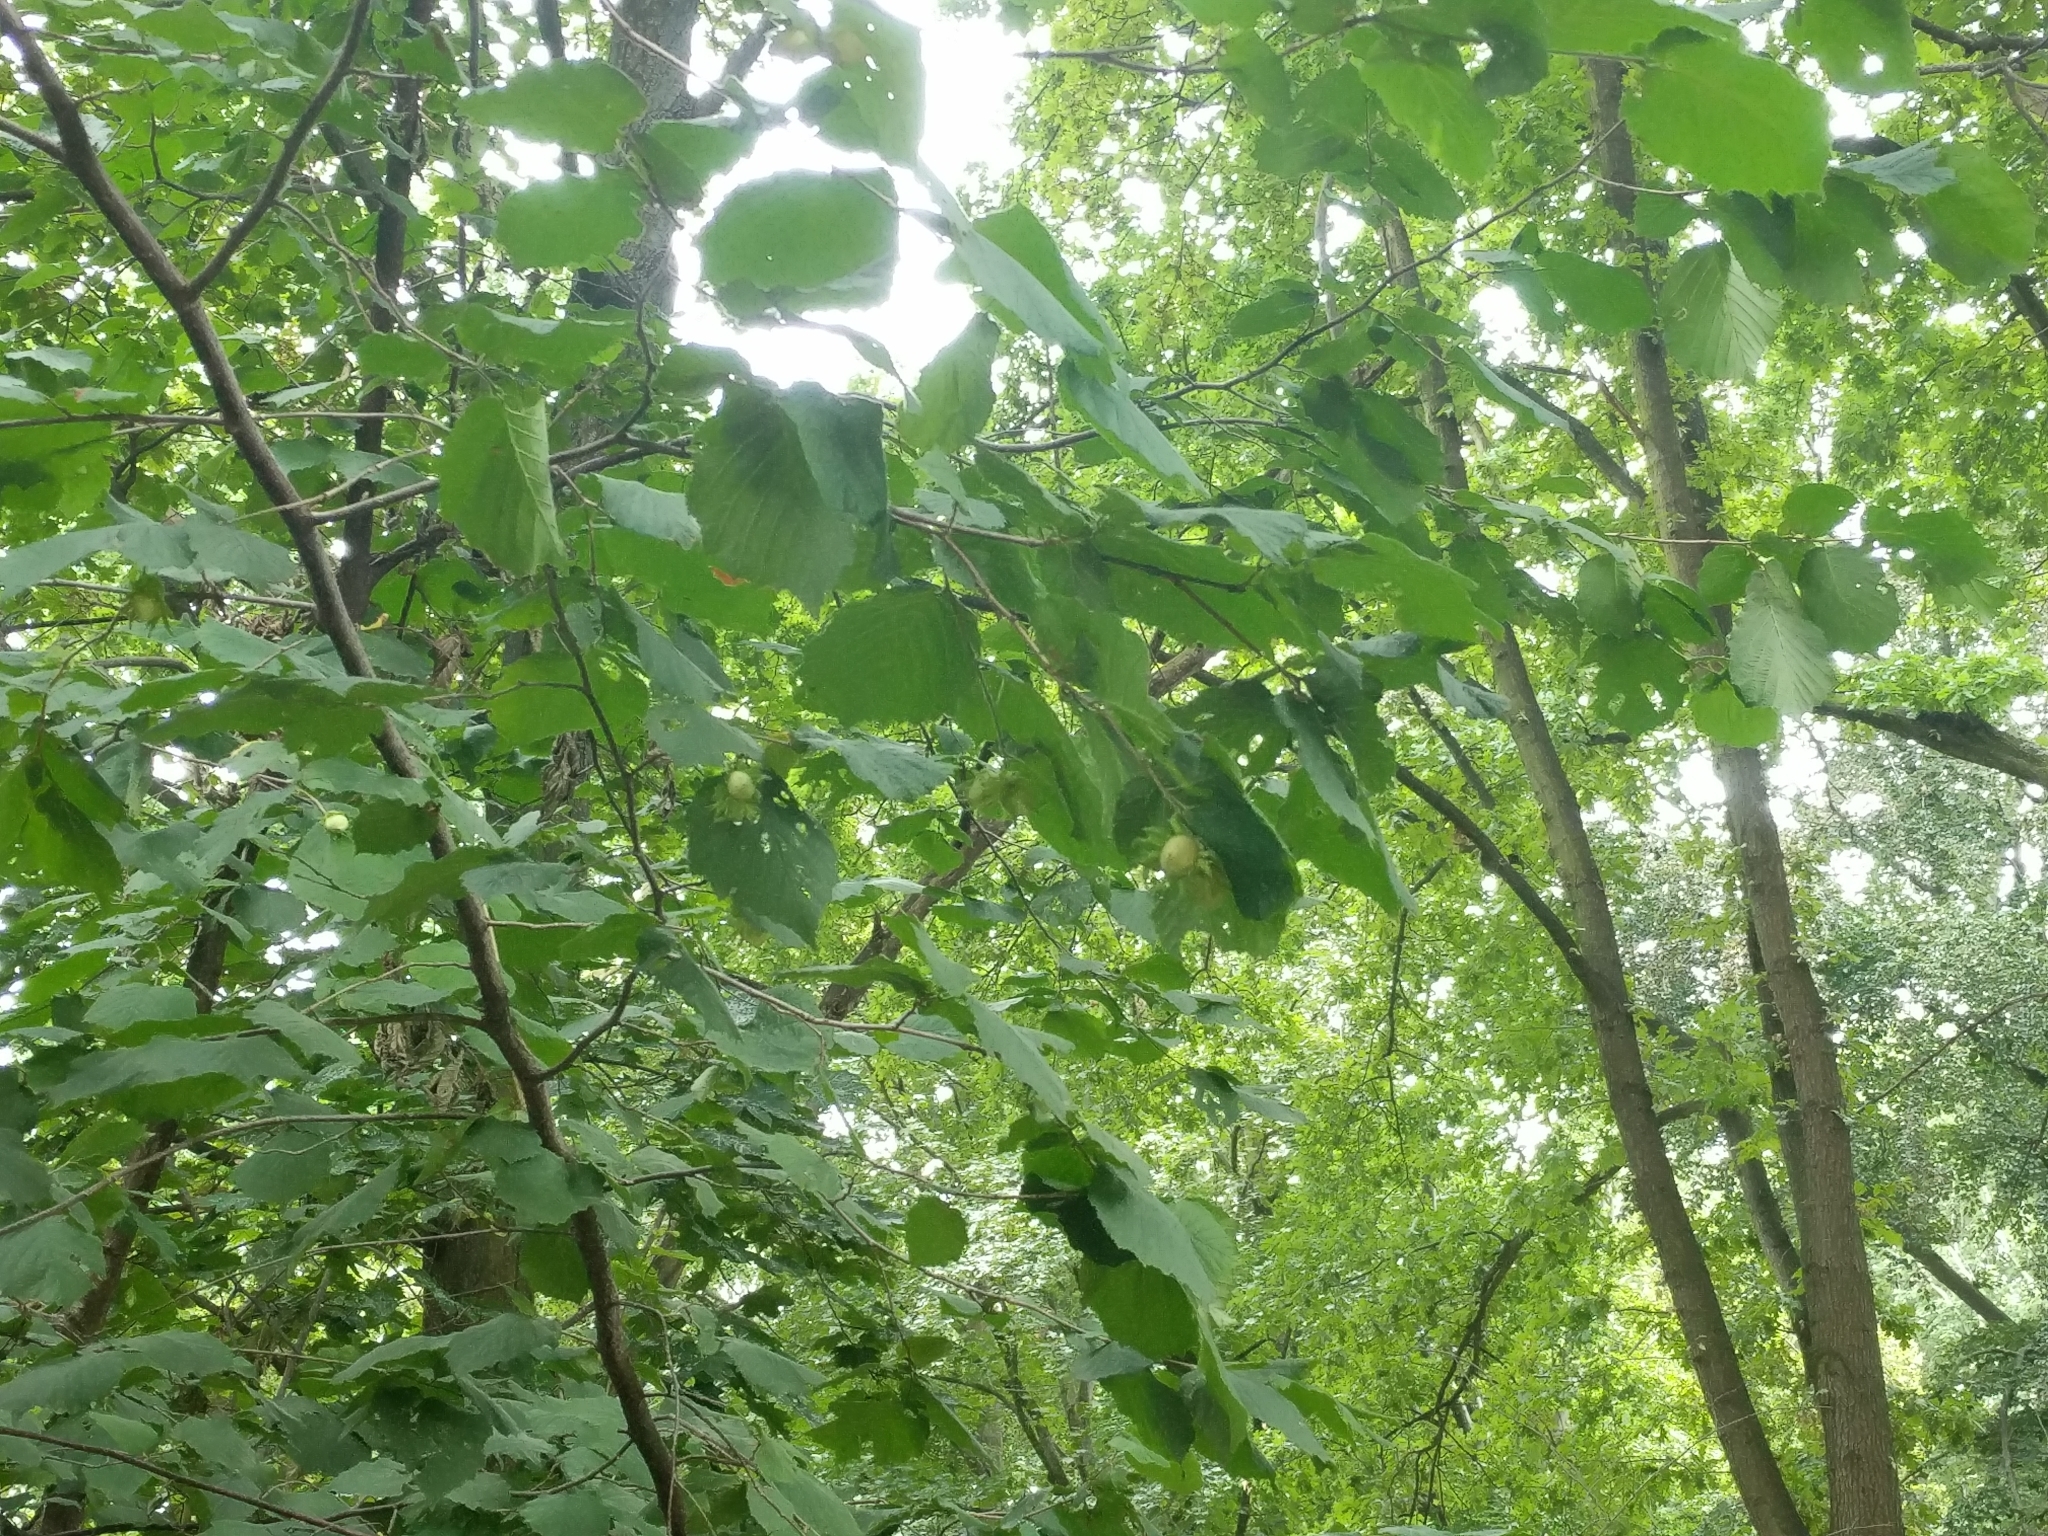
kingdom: Plantae
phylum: Tracheophyta
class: Magnoliopsida
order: Fagales
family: Betulaceae
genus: Corylus
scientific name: Corylus avellana
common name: European hazel
